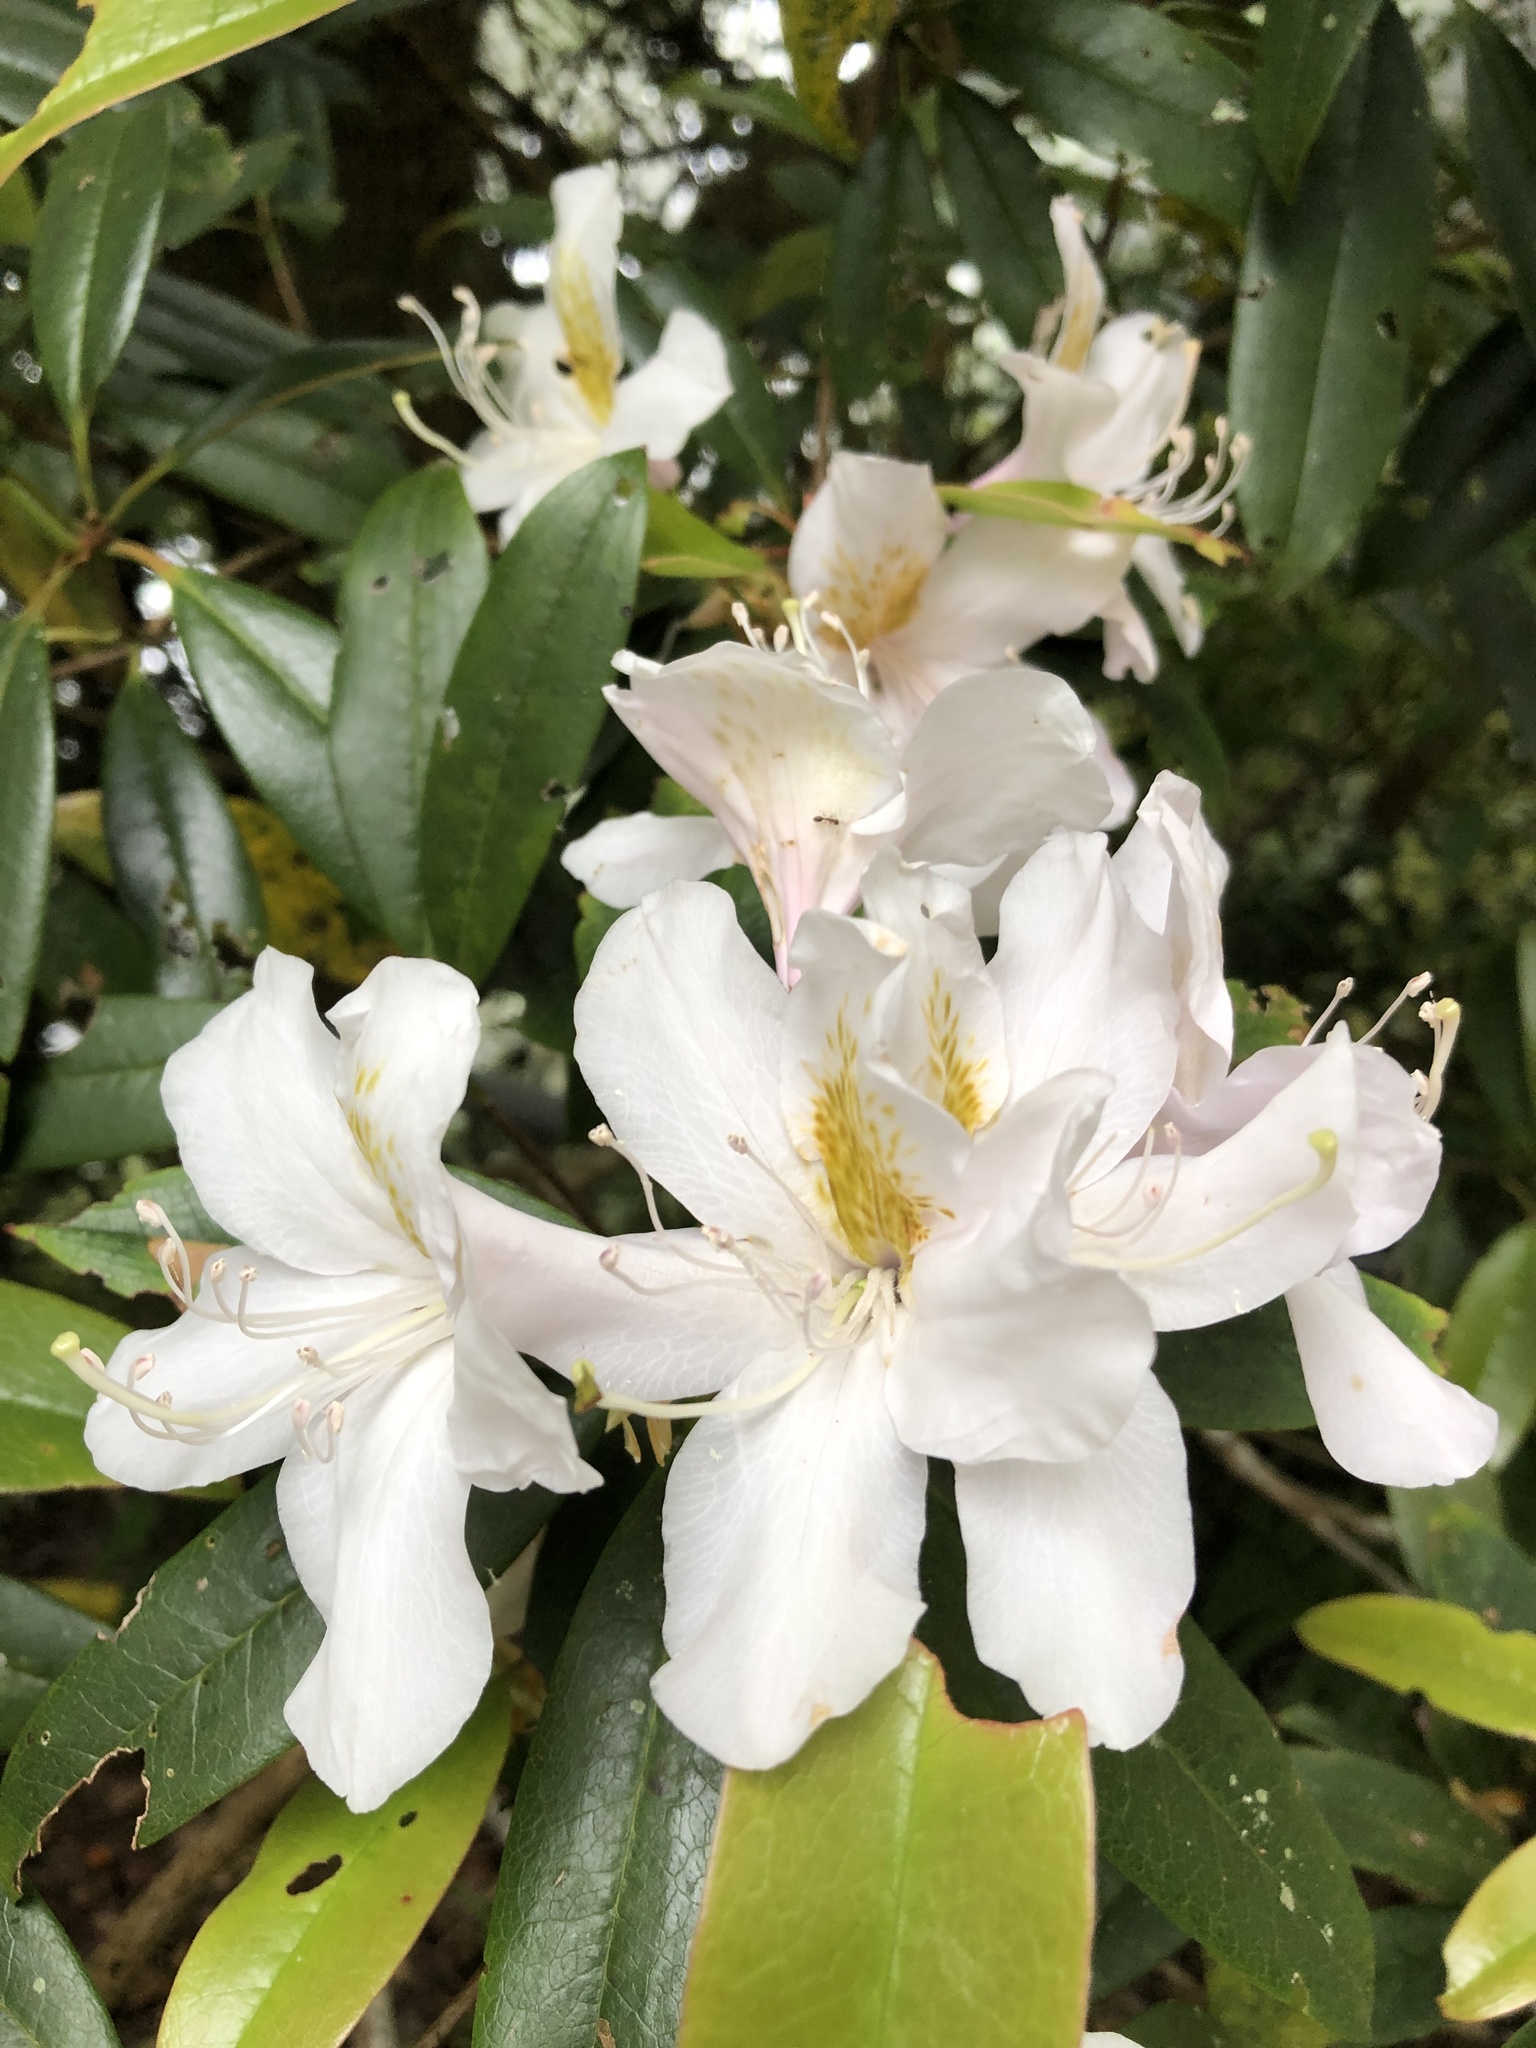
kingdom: Plantae
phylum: Tracheophyta
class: Magnoliopsida
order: Ericales
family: Ericaceae
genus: Rhododendron
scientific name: Rhododendron latoucheae
